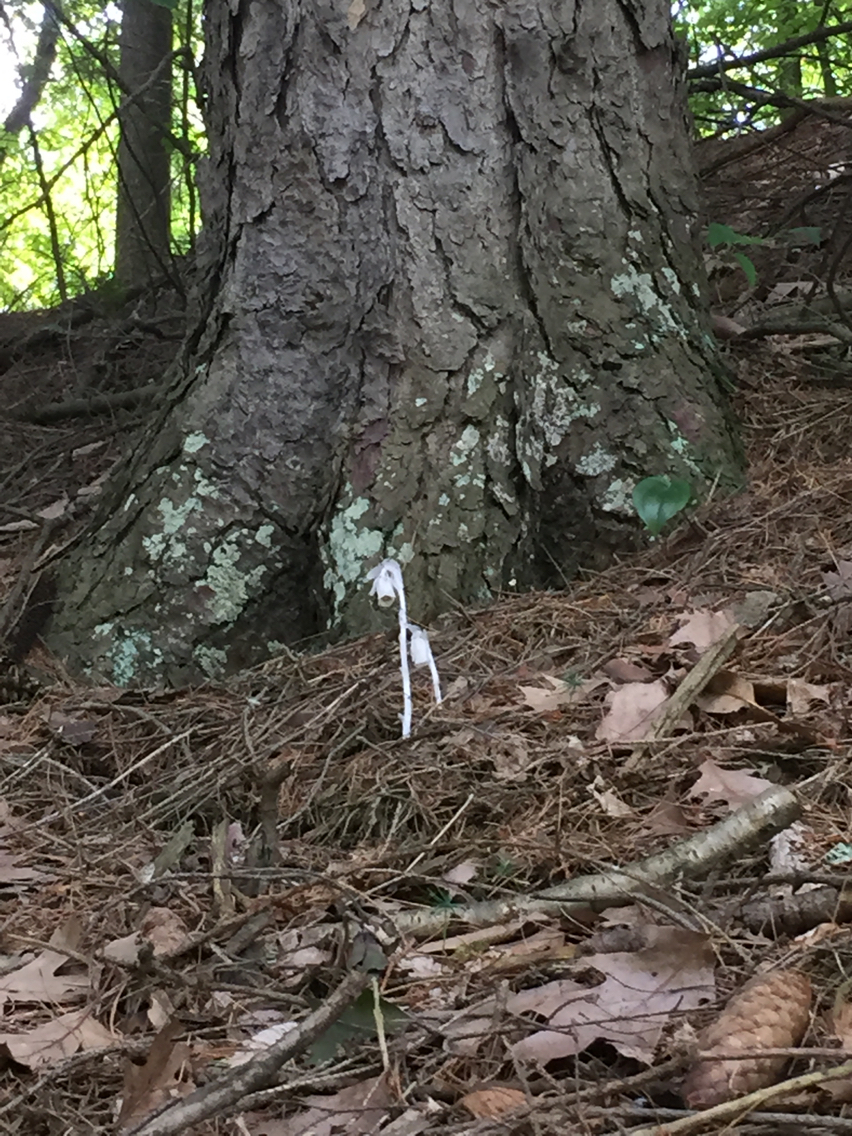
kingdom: Plantae
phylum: Tracheophyta
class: Magnoliopsida
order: Ericales
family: Ericaceae
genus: Monotropa
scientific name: Monotropa uniflora
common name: Convulsion root
